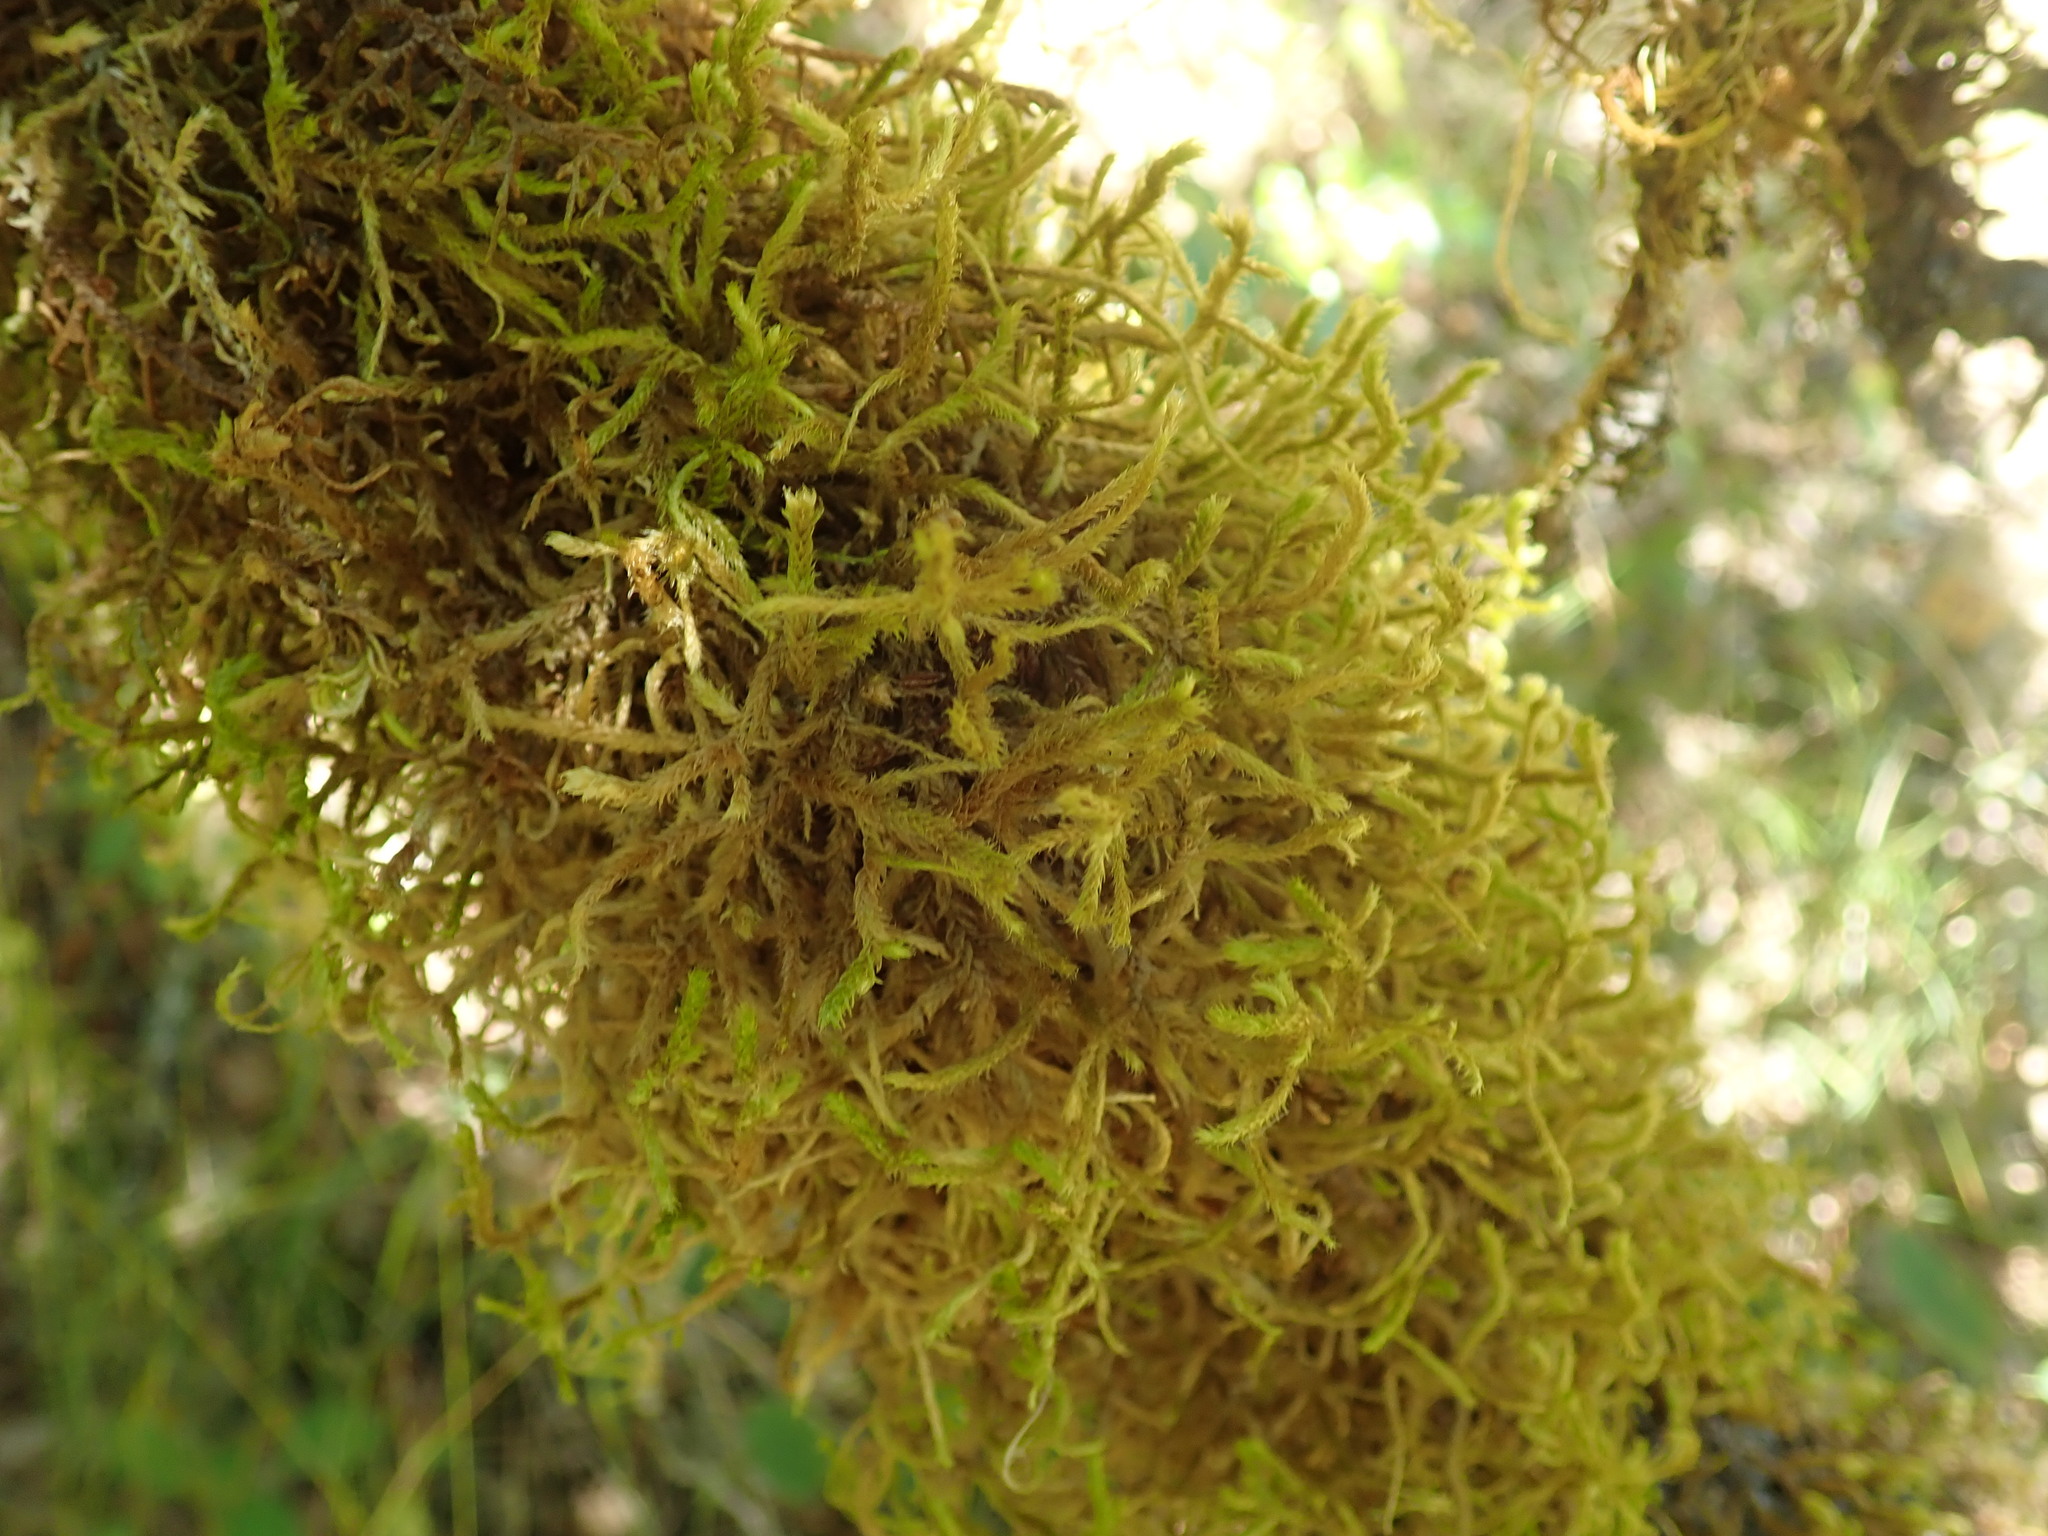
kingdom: Plantae
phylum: Bryophyta
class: Bryopsida
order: Hypnales
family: Antitrichiaceae
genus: Antitrichia
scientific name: Antitrichia curtipendula
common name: Pendulous wing-moss
